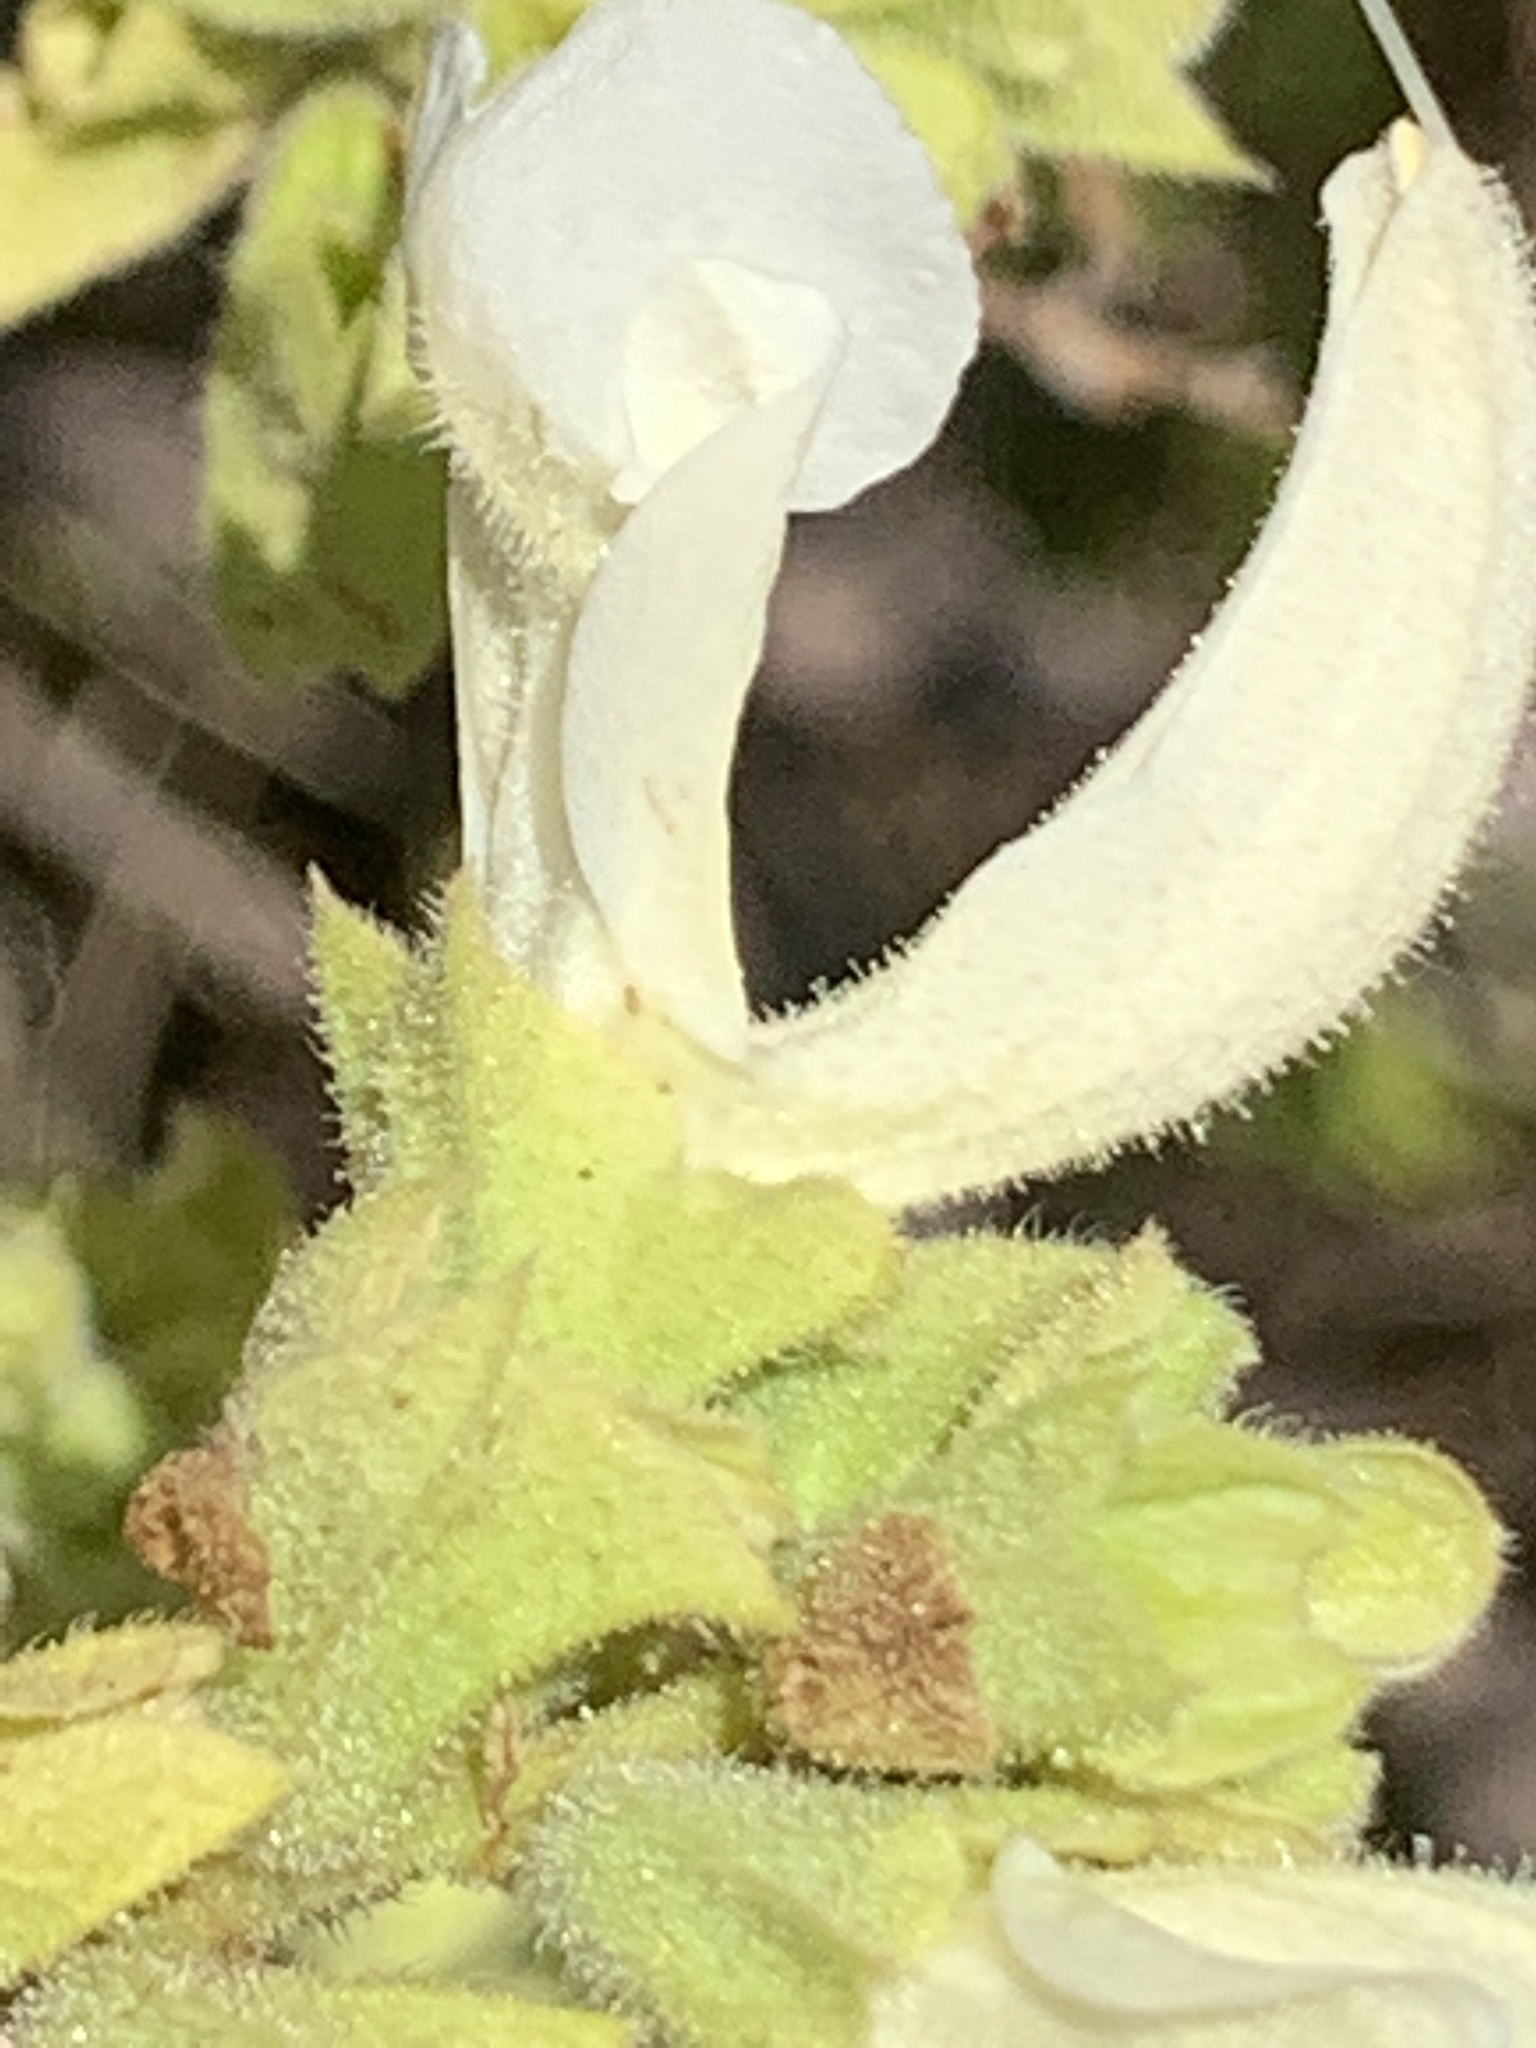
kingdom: Plantae
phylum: Tracheophyta
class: Magnoliopsida
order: Lamiales
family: Lamiaceae
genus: Salvia
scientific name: Salvia africana
